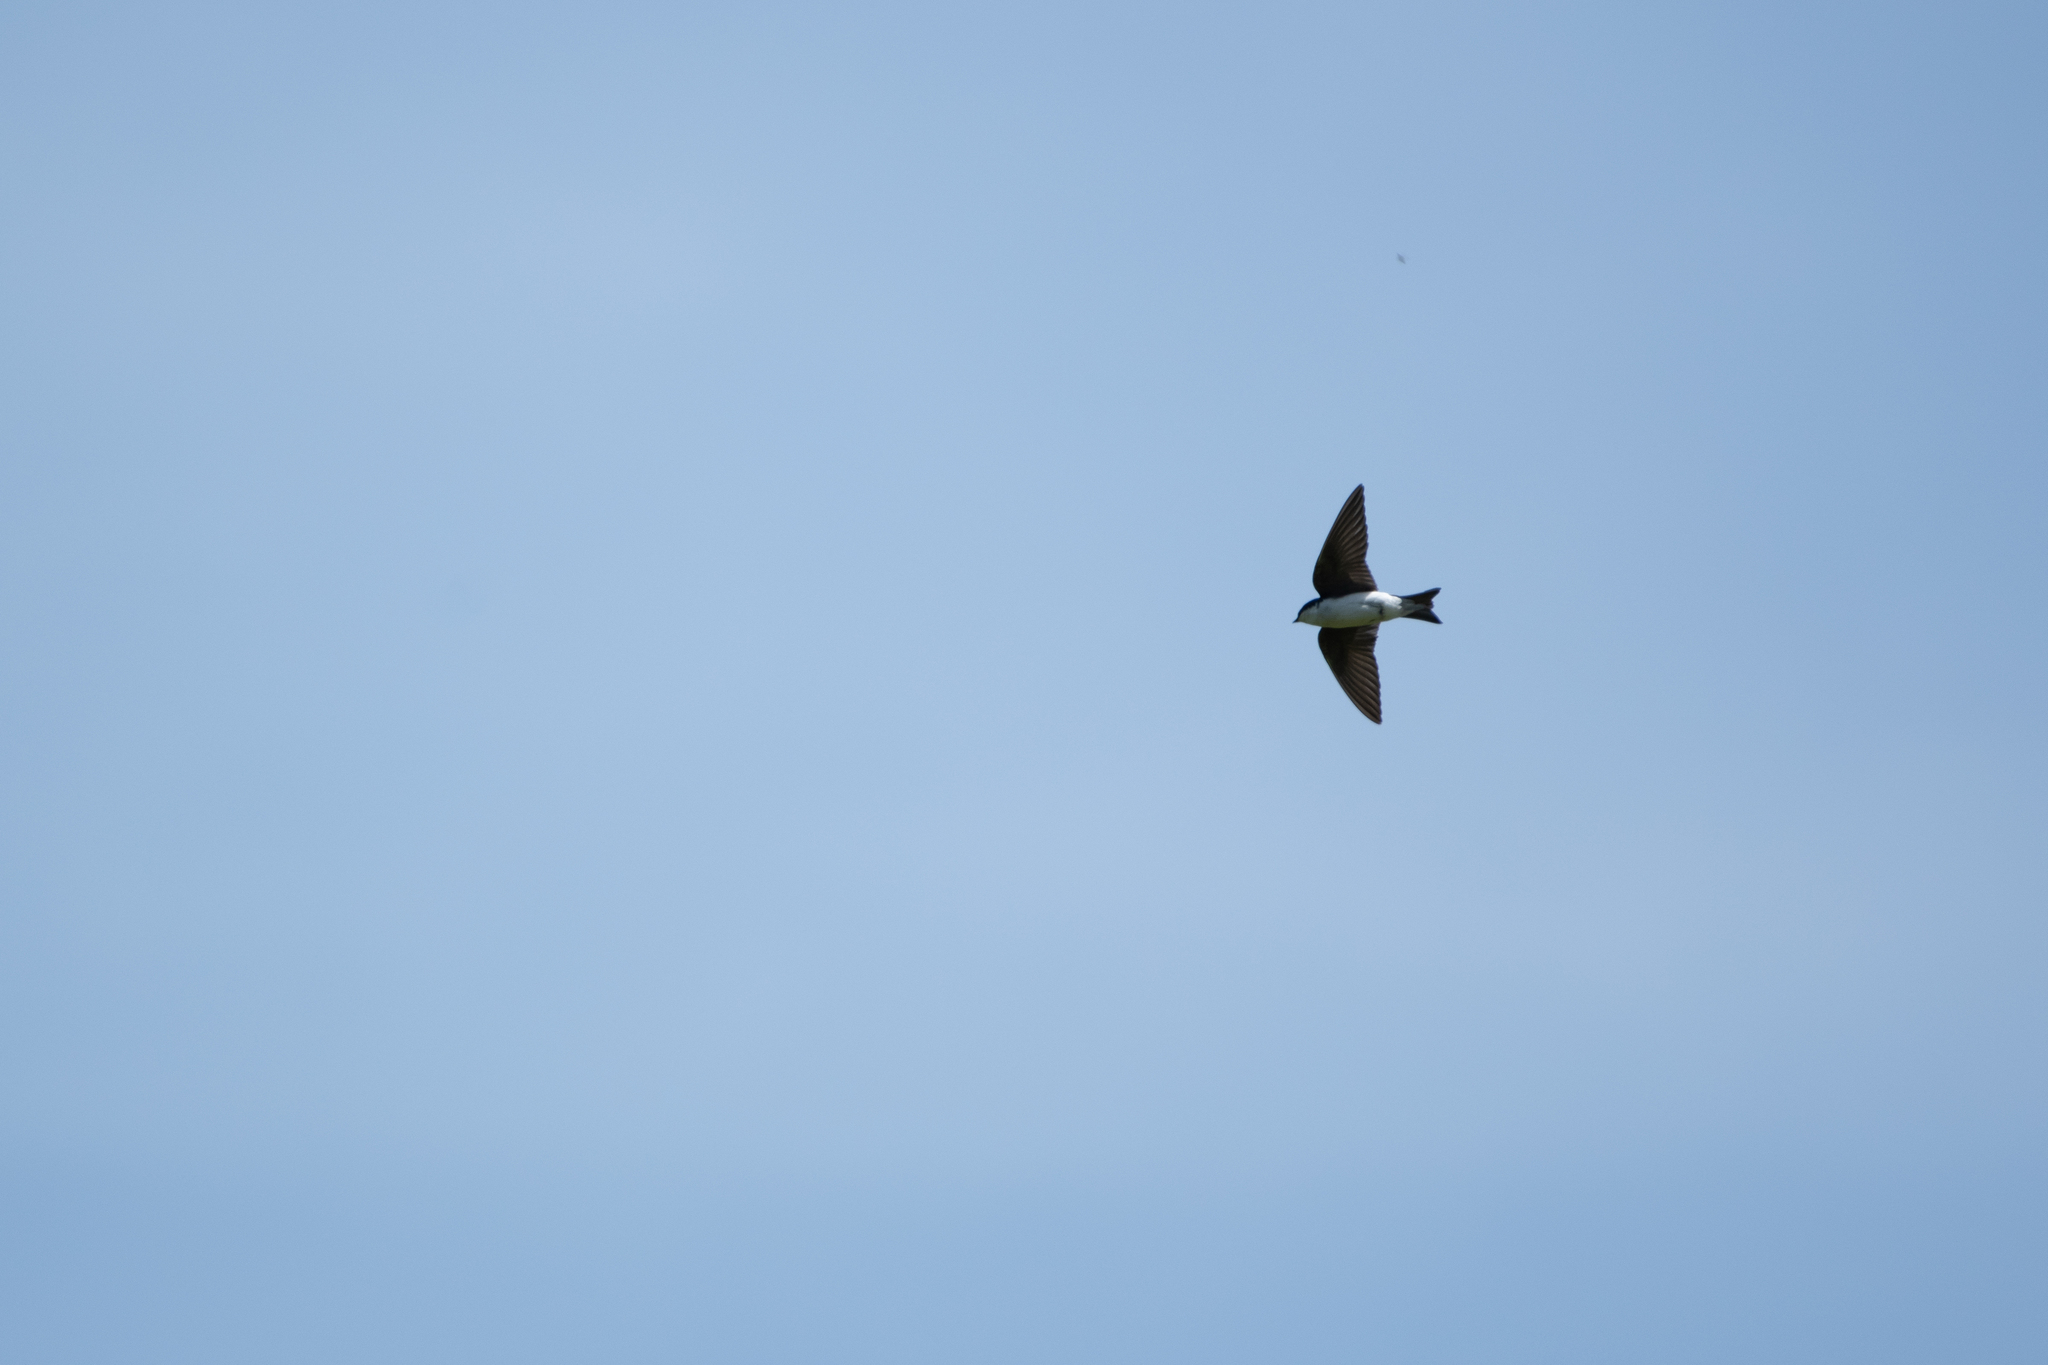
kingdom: Animalia
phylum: Chordata
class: Aves
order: Passeriformes
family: Hirundinidae
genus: Tachycineta
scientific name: Tachycineta bicolor
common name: Tree swallow
